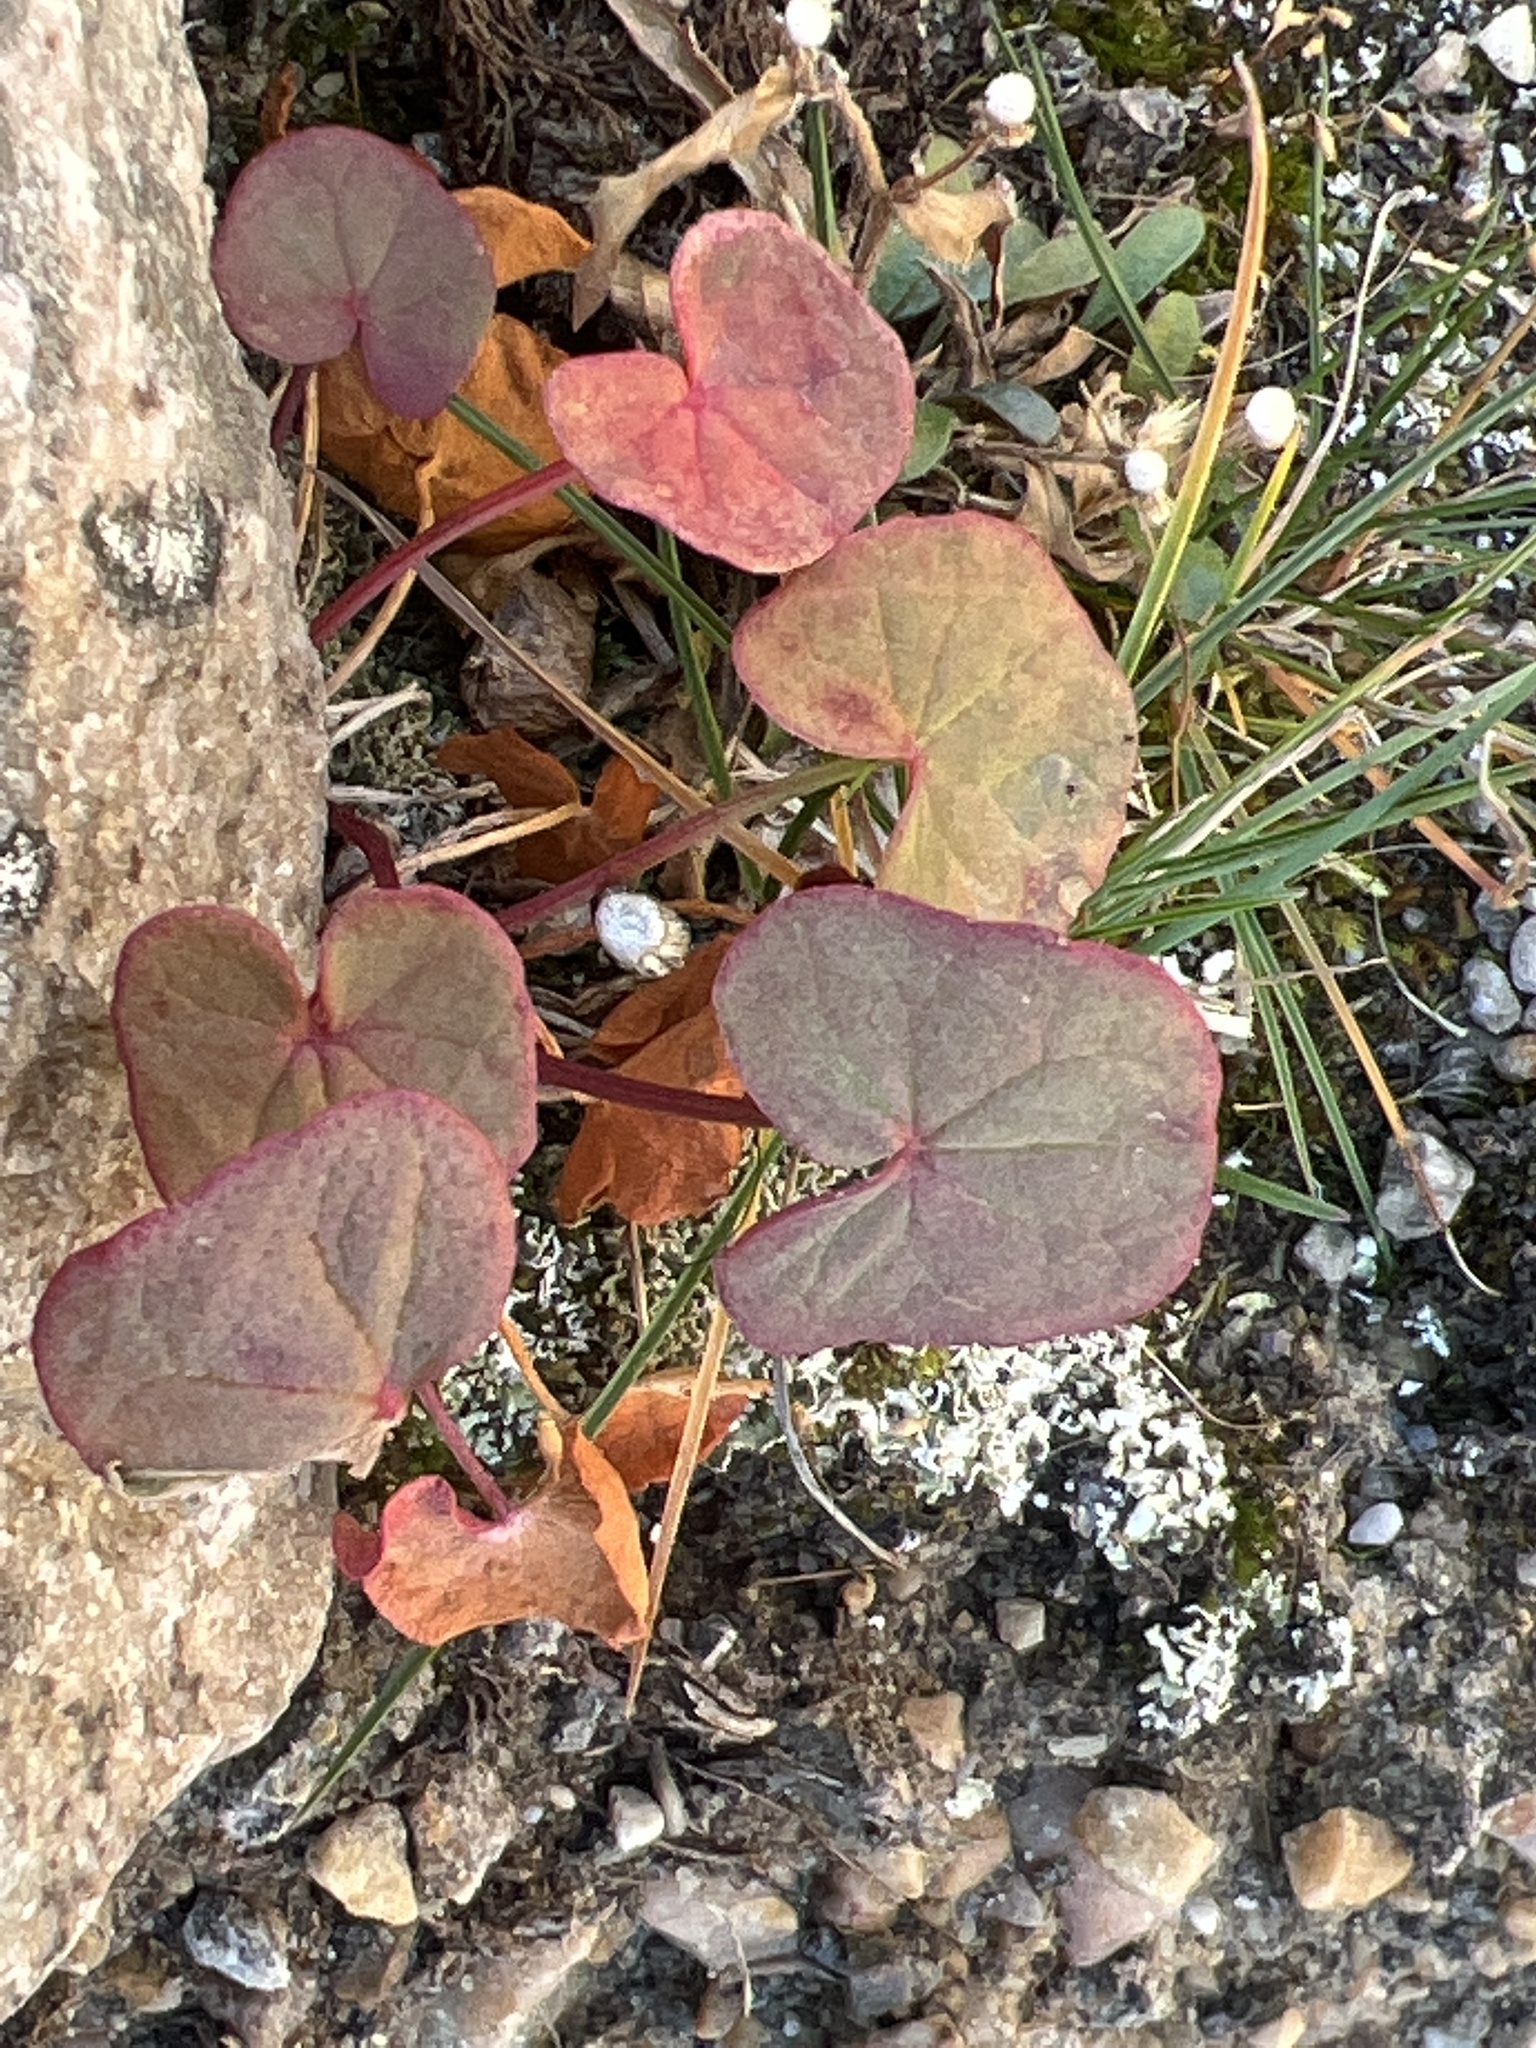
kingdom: Plantae
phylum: Tracheophyta
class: Magnoliopsida
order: Caryophyllales
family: Polygonaceae
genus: Oxyria
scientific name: Oxyria digyna
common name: Alpine mountain-sorrel
